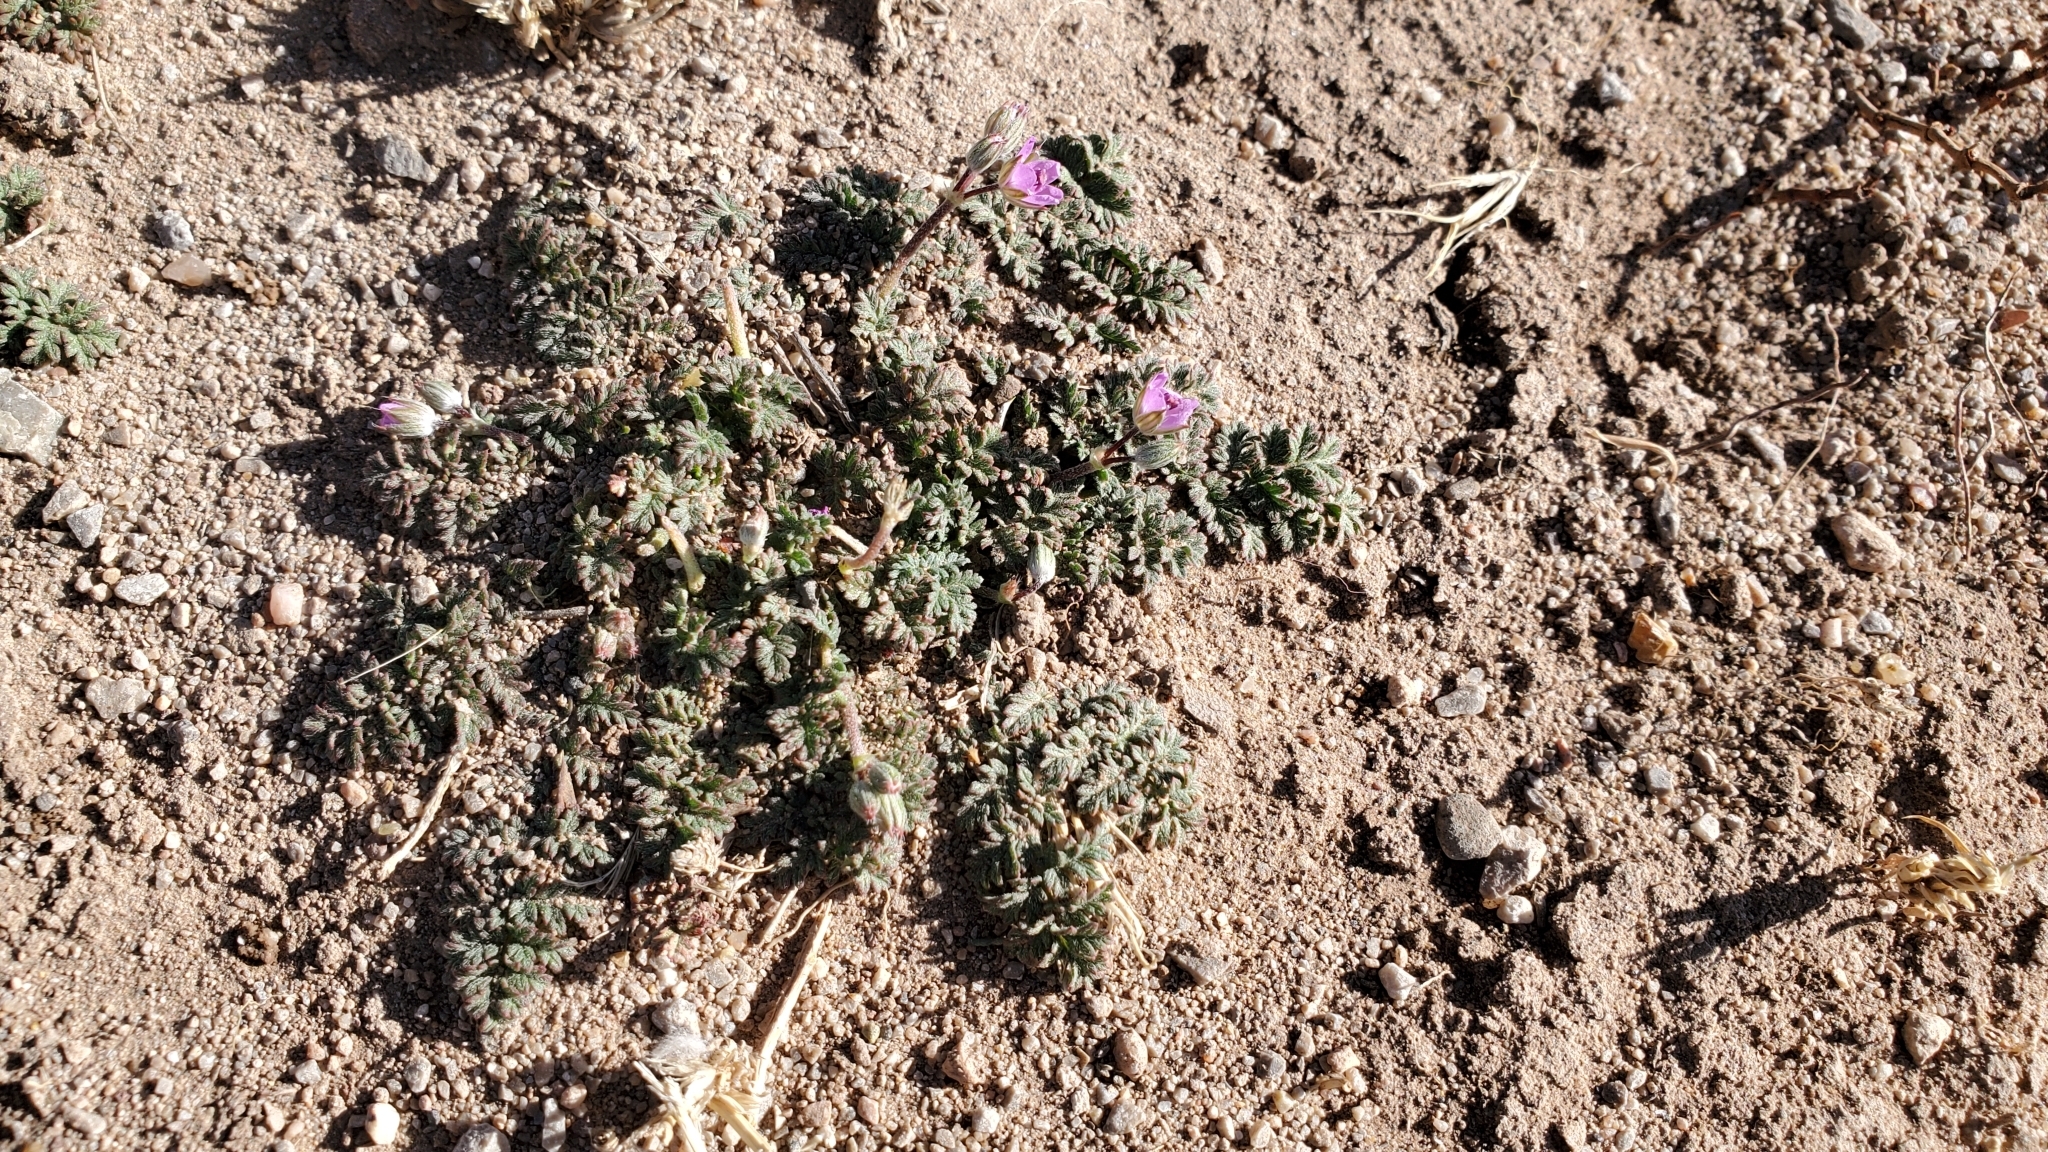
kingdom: Plantae
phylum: Tracheophyta
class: Magnoliopsida
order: Geraniales
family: Geraniaceae
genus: Erodium
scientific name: Erodium cicutarium
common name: Common stork's-bill
